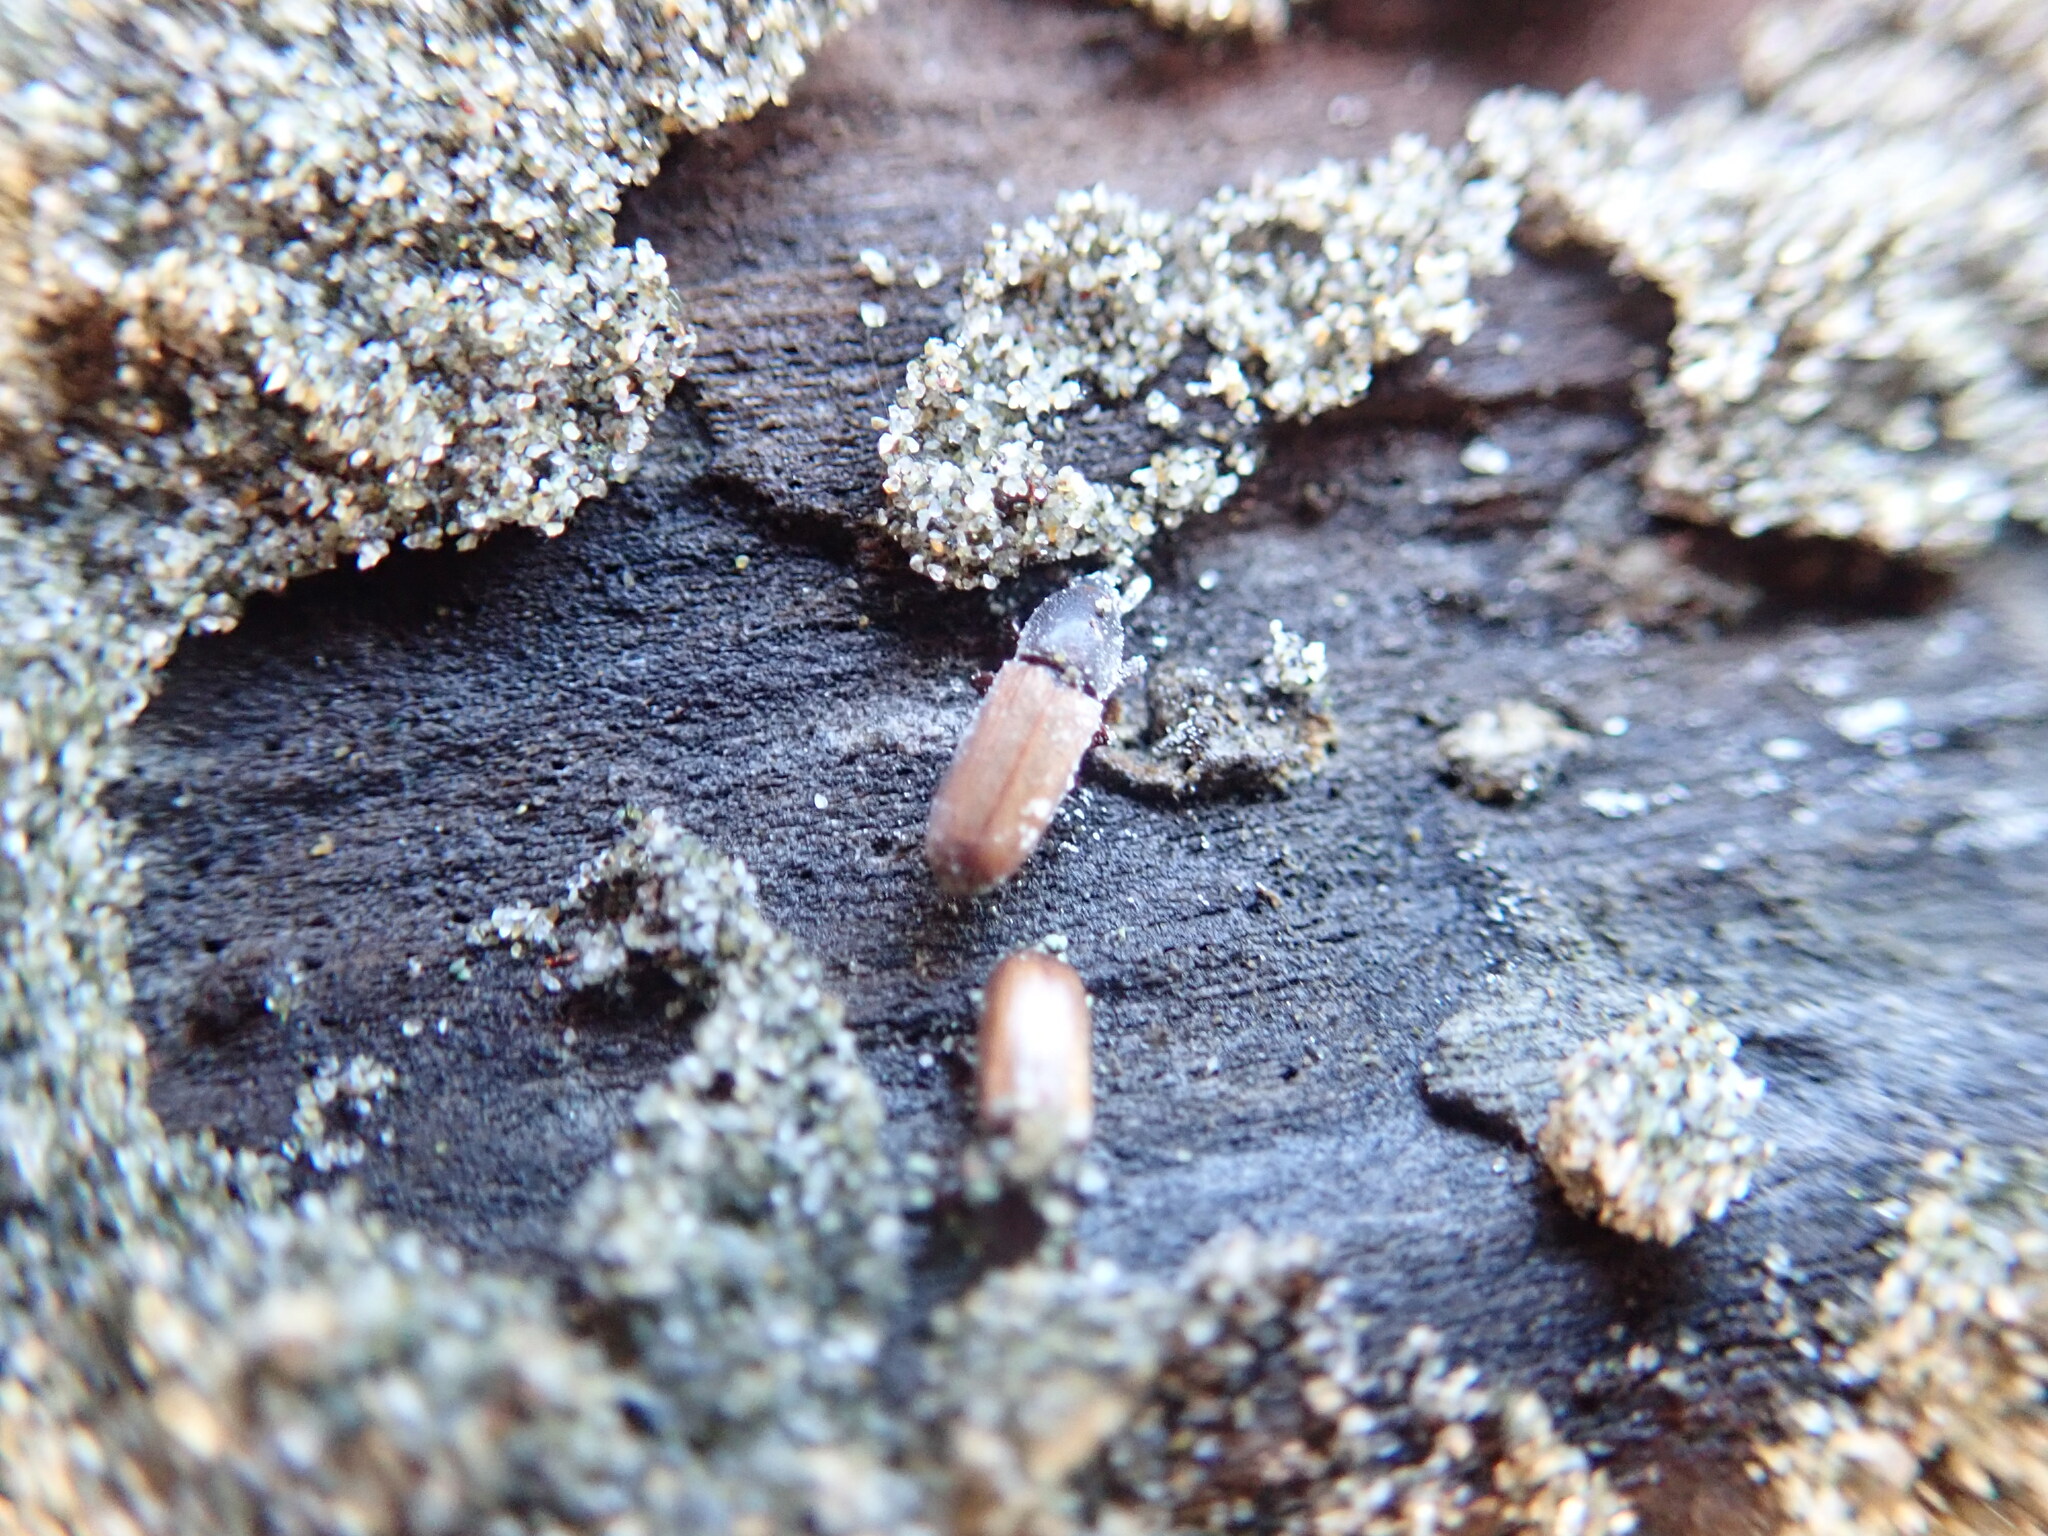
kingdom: Animalia
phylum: Arthropoda
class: Insecta
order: Coleoptera
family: Curculionidae
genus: Mesites
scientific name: Mesites pallidipennis
